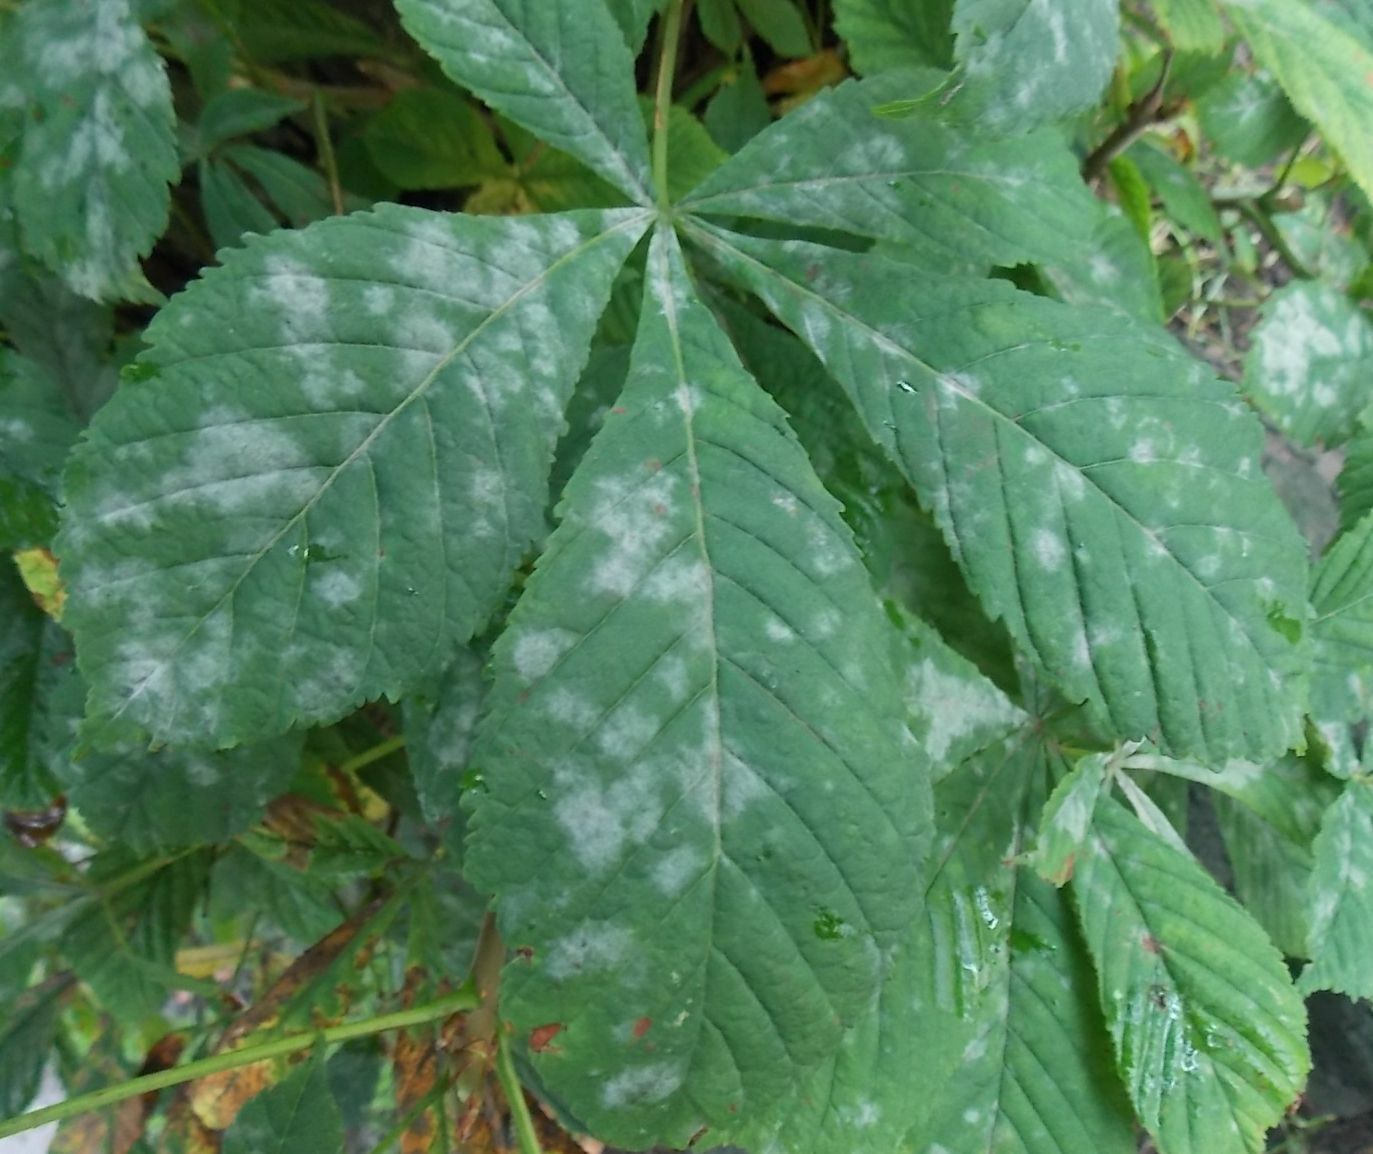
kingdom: Fungi
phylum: Ascomycota
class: Leotiomycetes
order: Helotiales
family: Erysiphaceae
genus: Erysiphe
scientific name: Erysiphe flexuosa
